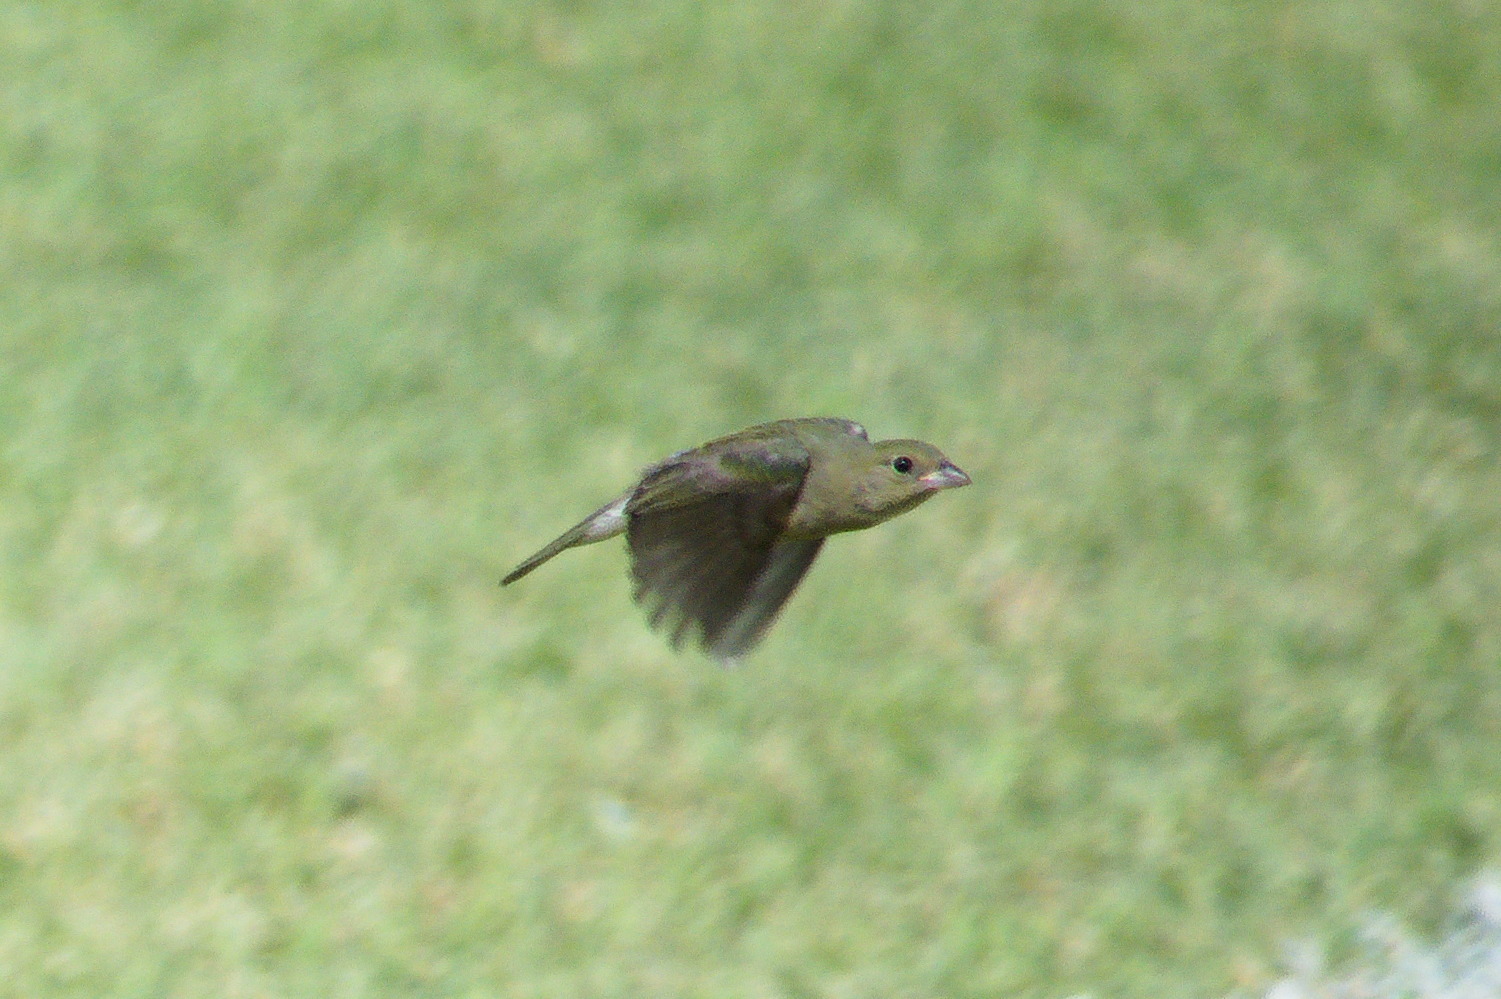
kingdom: Animalia
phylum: Chordata
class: Aves
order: Passeriformes
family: Cardinalidae
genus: Passerina
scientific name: Passerina ciris
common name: Painted bunting
